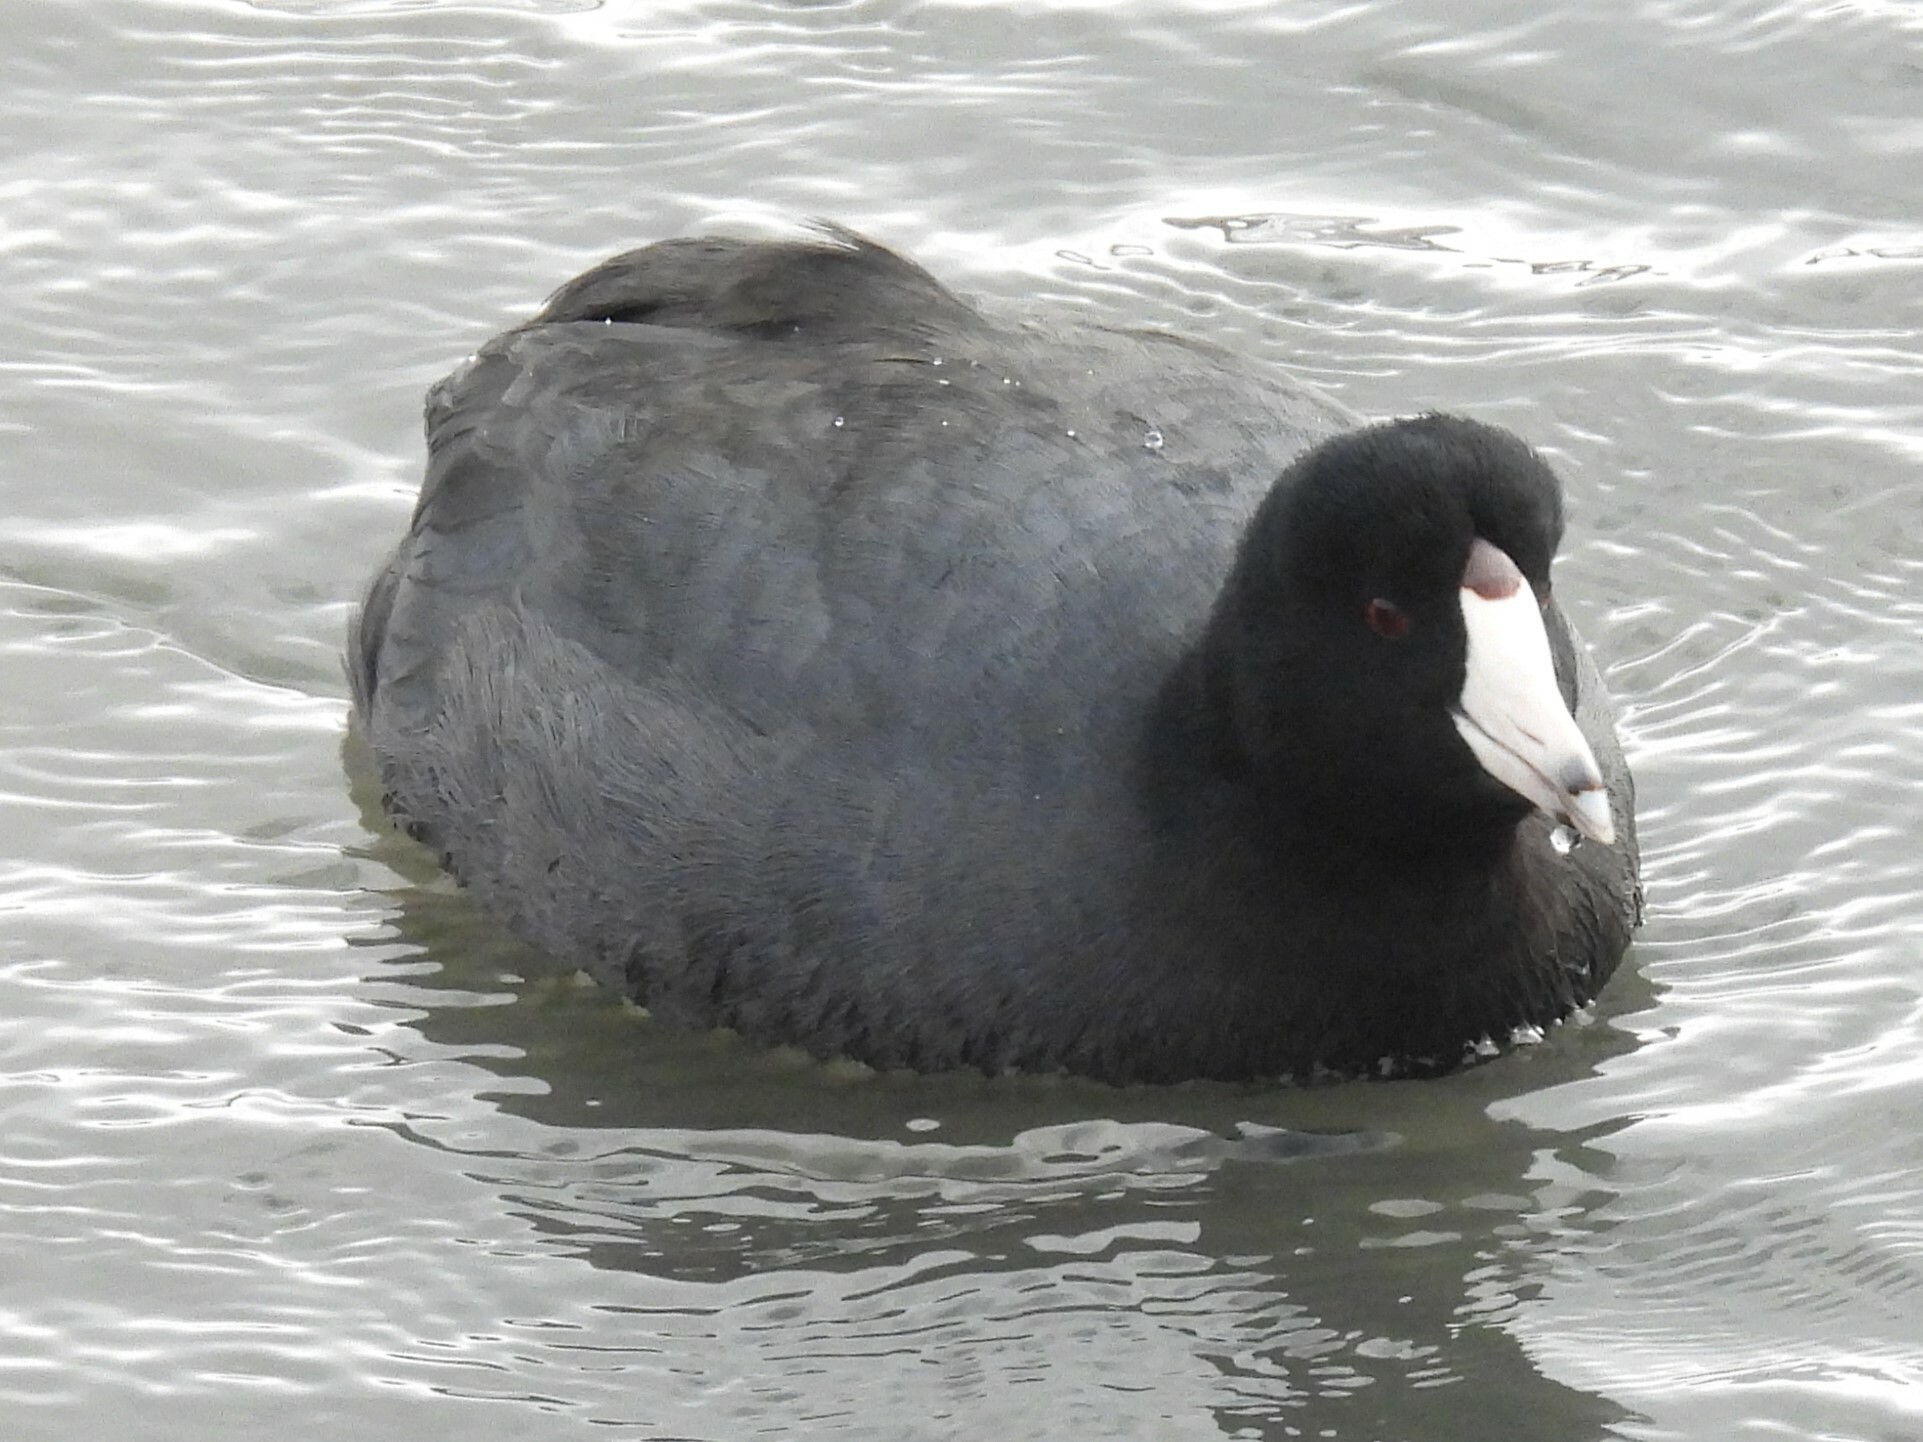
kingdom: Animalia
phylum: Chordata
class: Aves
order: Gruiformes
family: Rallidae
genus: Fulica
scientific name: Fulica americana
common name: American coot
